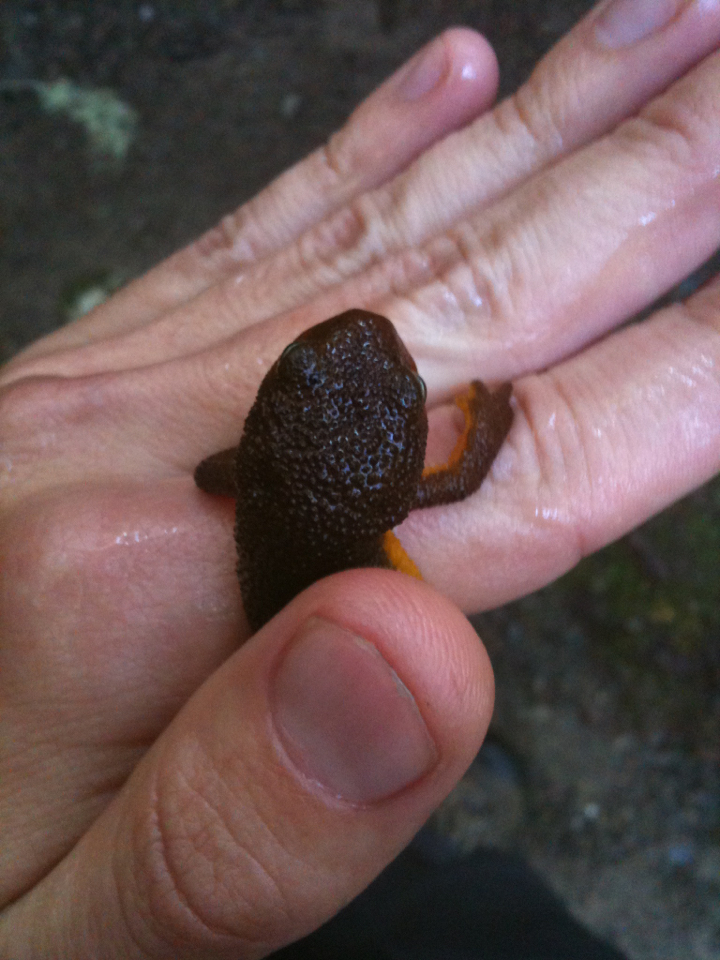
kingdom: Animalia
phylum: Chordata
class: Amphibia
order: Caudata
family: Salamandridae
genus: Taricha
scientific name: Taricha granulosa
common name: Roughskin newt
